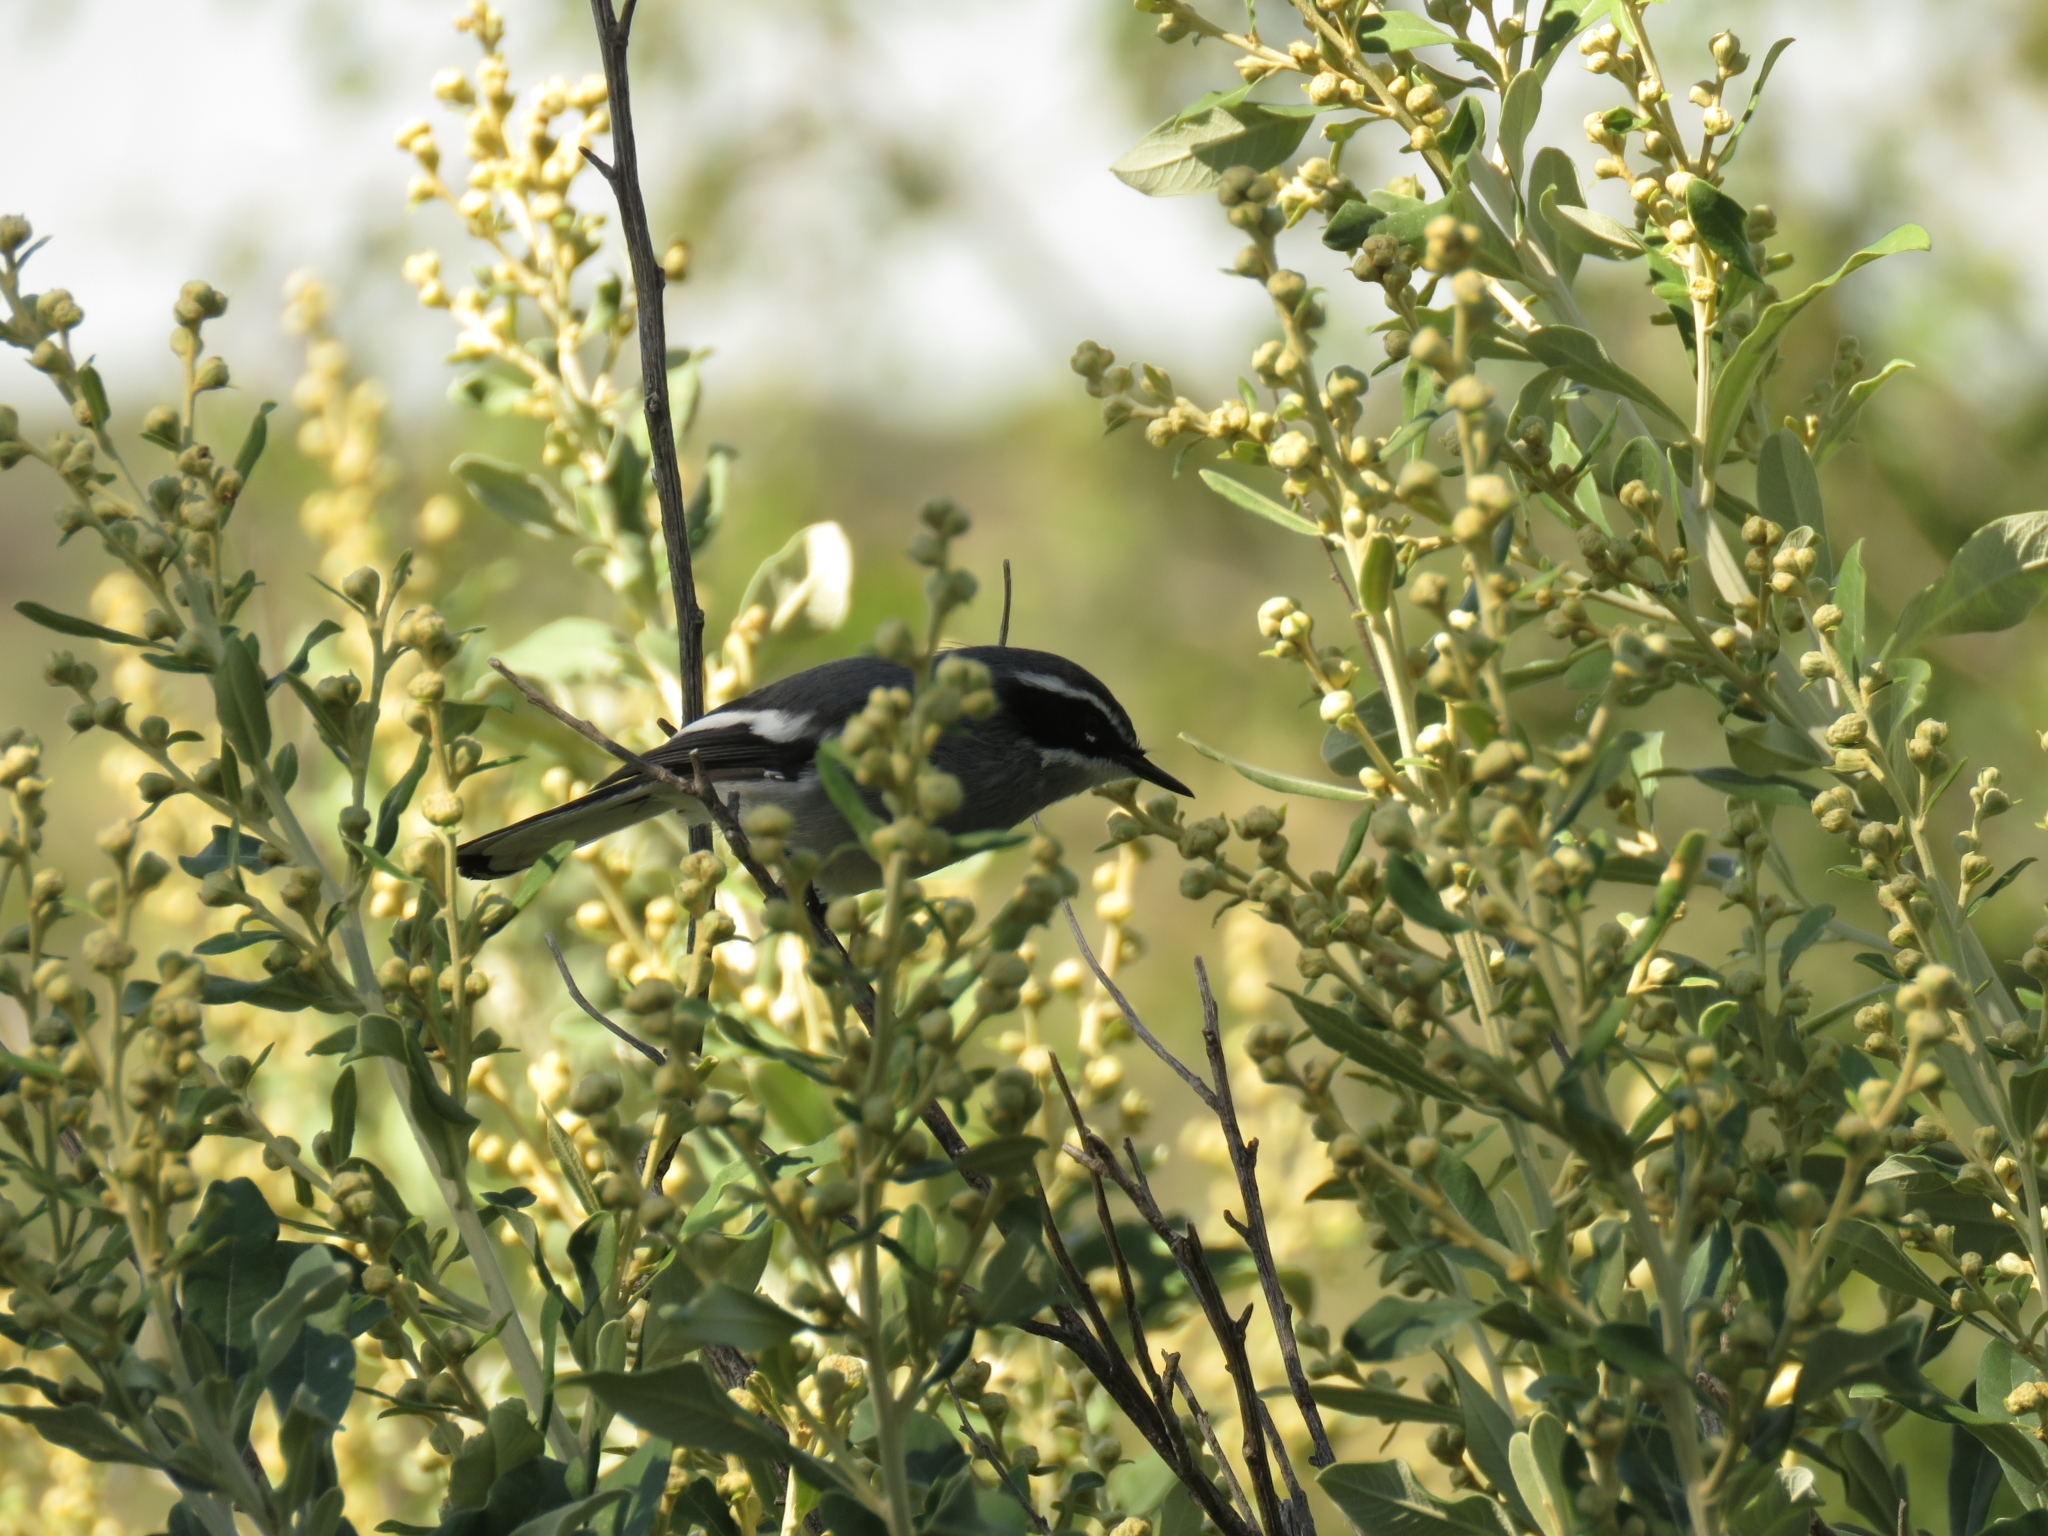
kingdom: Animalia
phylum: Chordata
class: Aves
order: Passeriformes
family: Stenostiridae
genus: Stenostira
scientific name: Stenostira scita
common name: Fairy flycatcher
